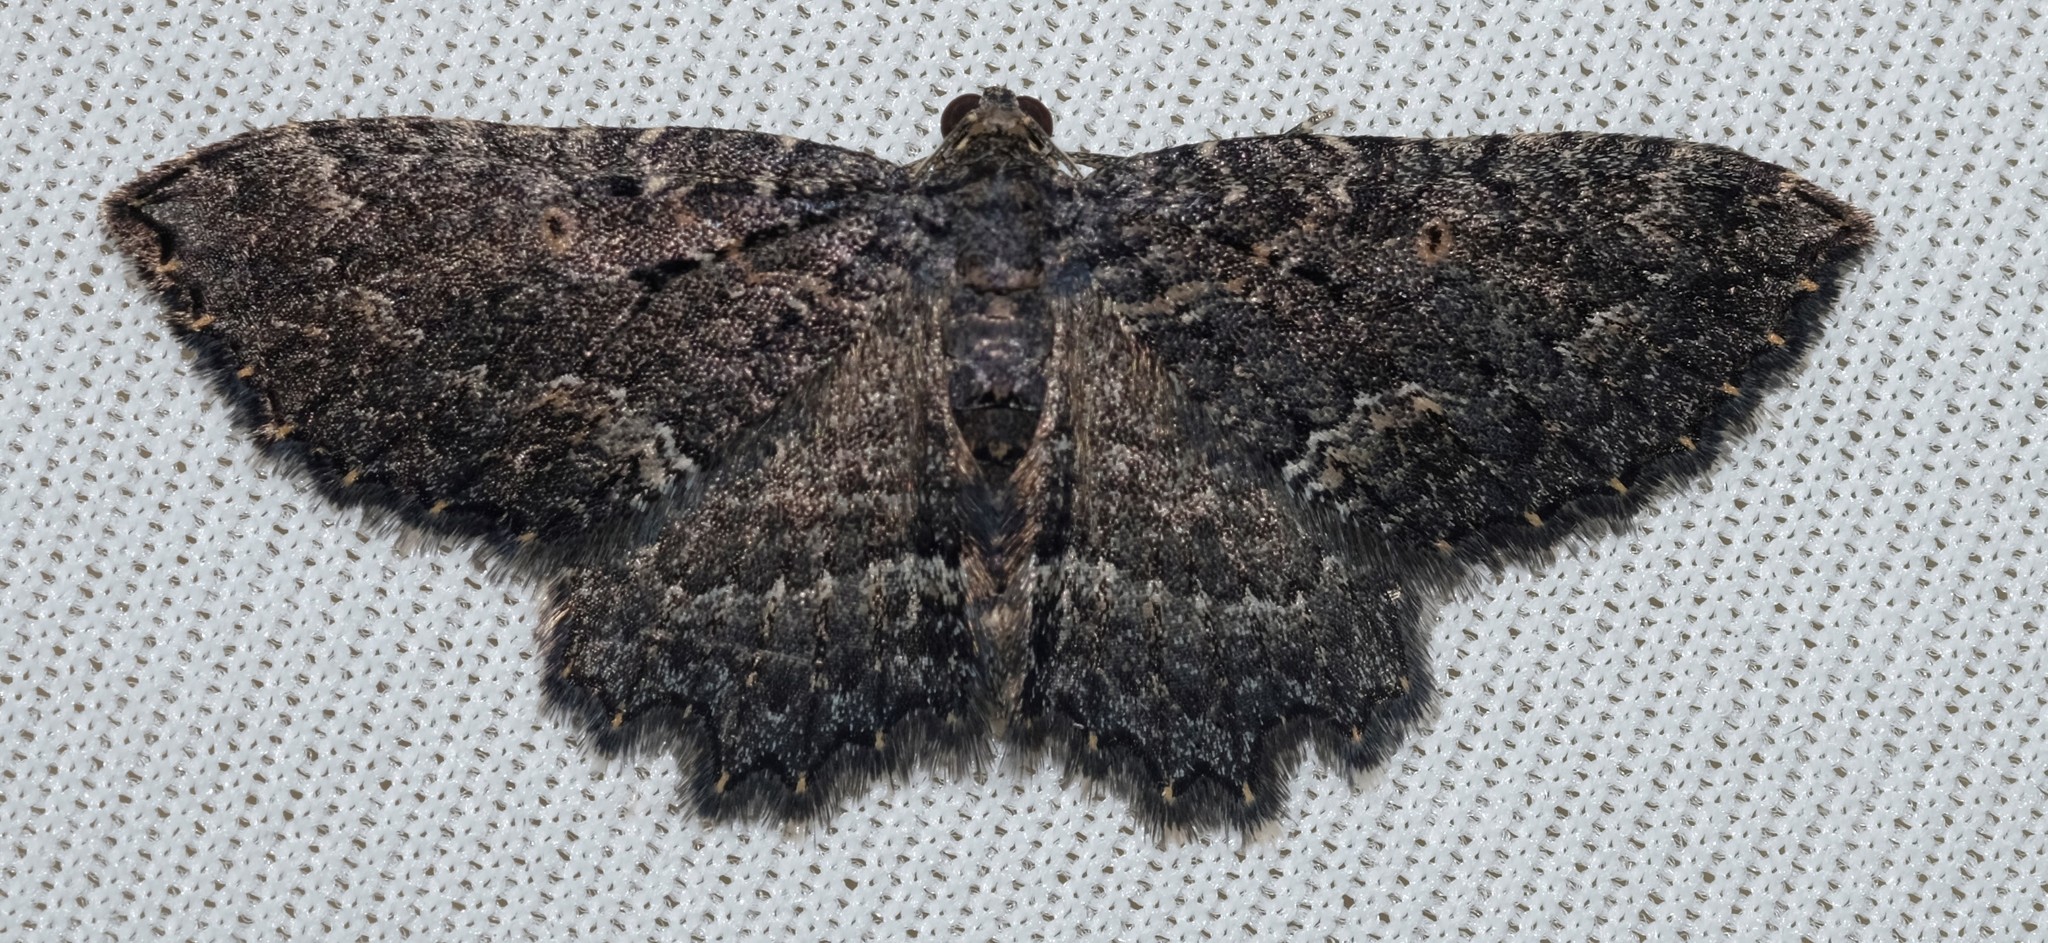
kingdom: Animalia
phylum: Arthropoda
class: Insecta
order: Lepidoptera
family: Geometridae
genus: Eccymatoge
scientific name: Eccymatoge morphna
